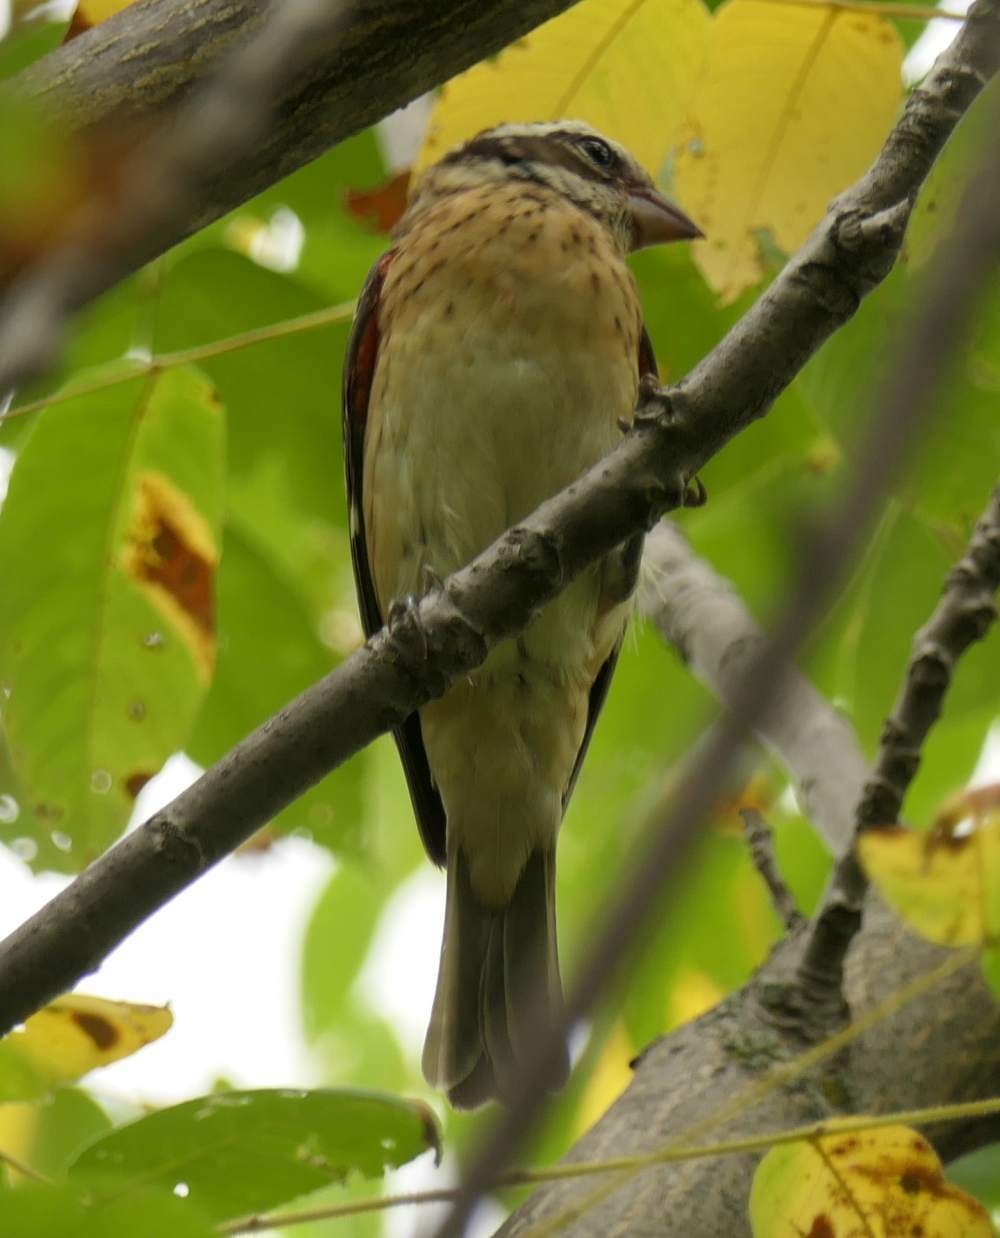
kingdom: Animalia
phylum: Chordata
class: Aves
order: Passeriformes
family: Cardinalidae
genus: Pheucticus
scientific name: Pheucticus ludovicianus
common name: Rose-breasted grosbeak
